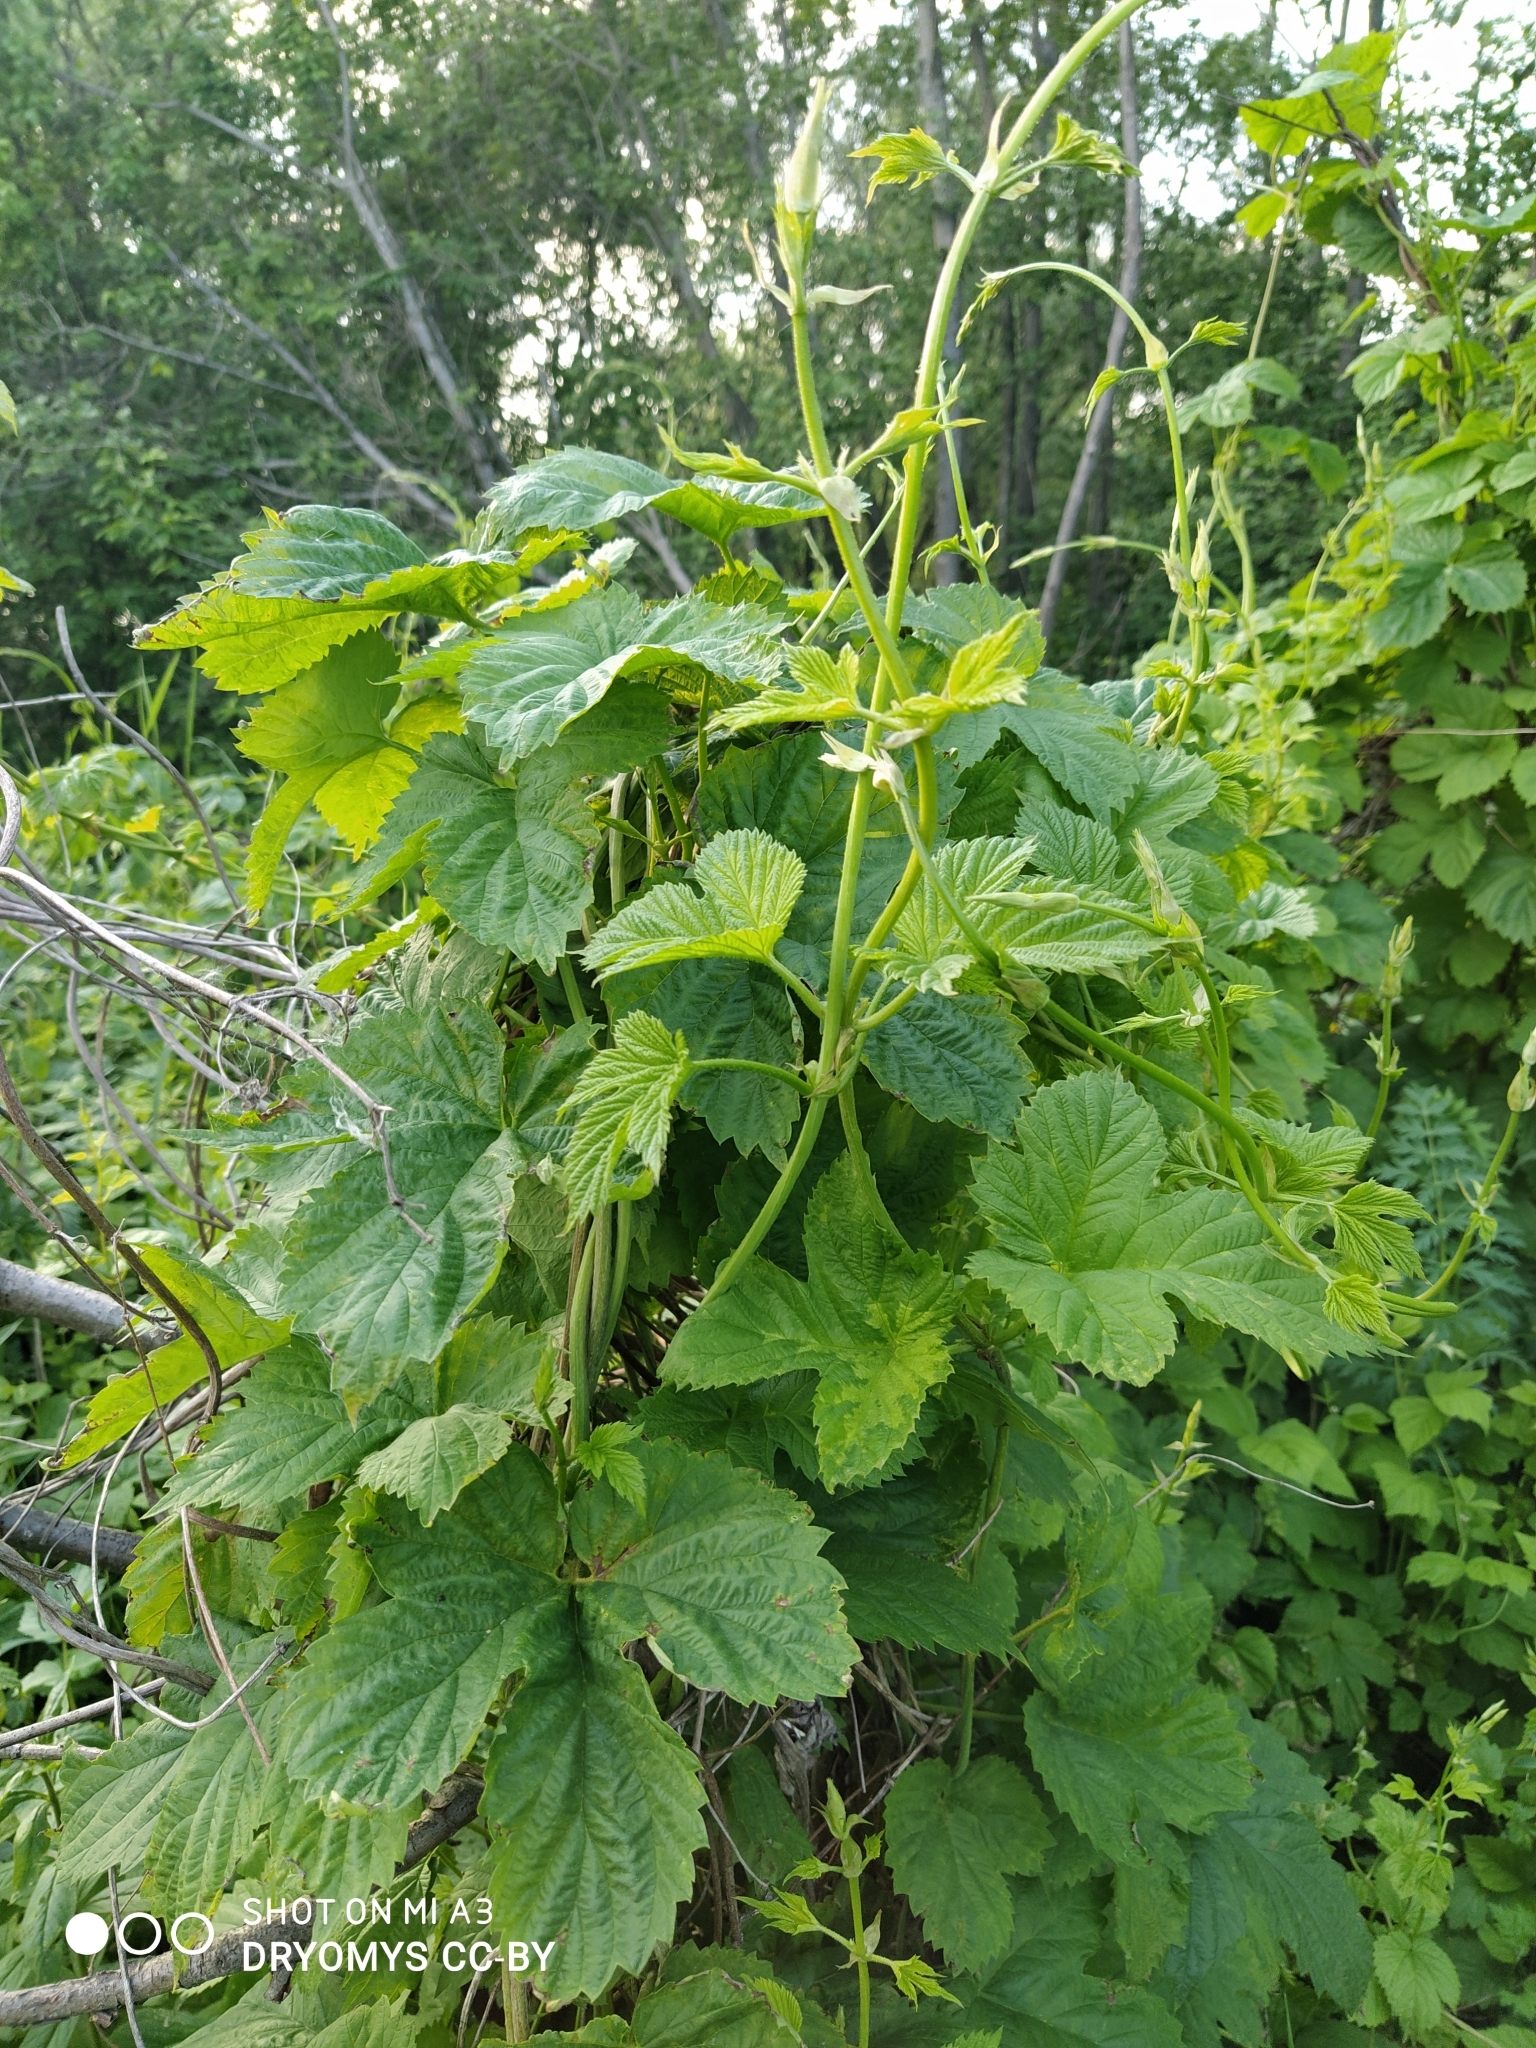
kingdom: Plantae
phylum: Tracheophyta
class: Magnoliopsida
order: Rosales
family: Cannabaceae
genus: Humulus
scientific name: Humulus lupulus
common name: Hop
